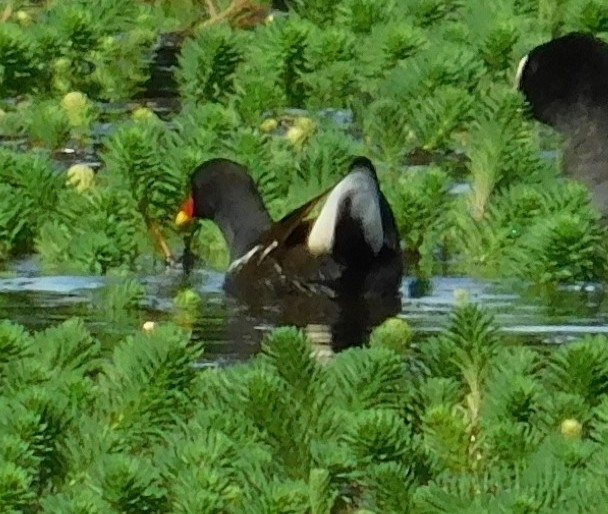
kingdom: Animalia
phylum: Chordata
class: Aves
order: Gruiformes
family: Rallidae
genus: Gallinula
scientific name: Gallinula chloropus
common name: Common moorhen
